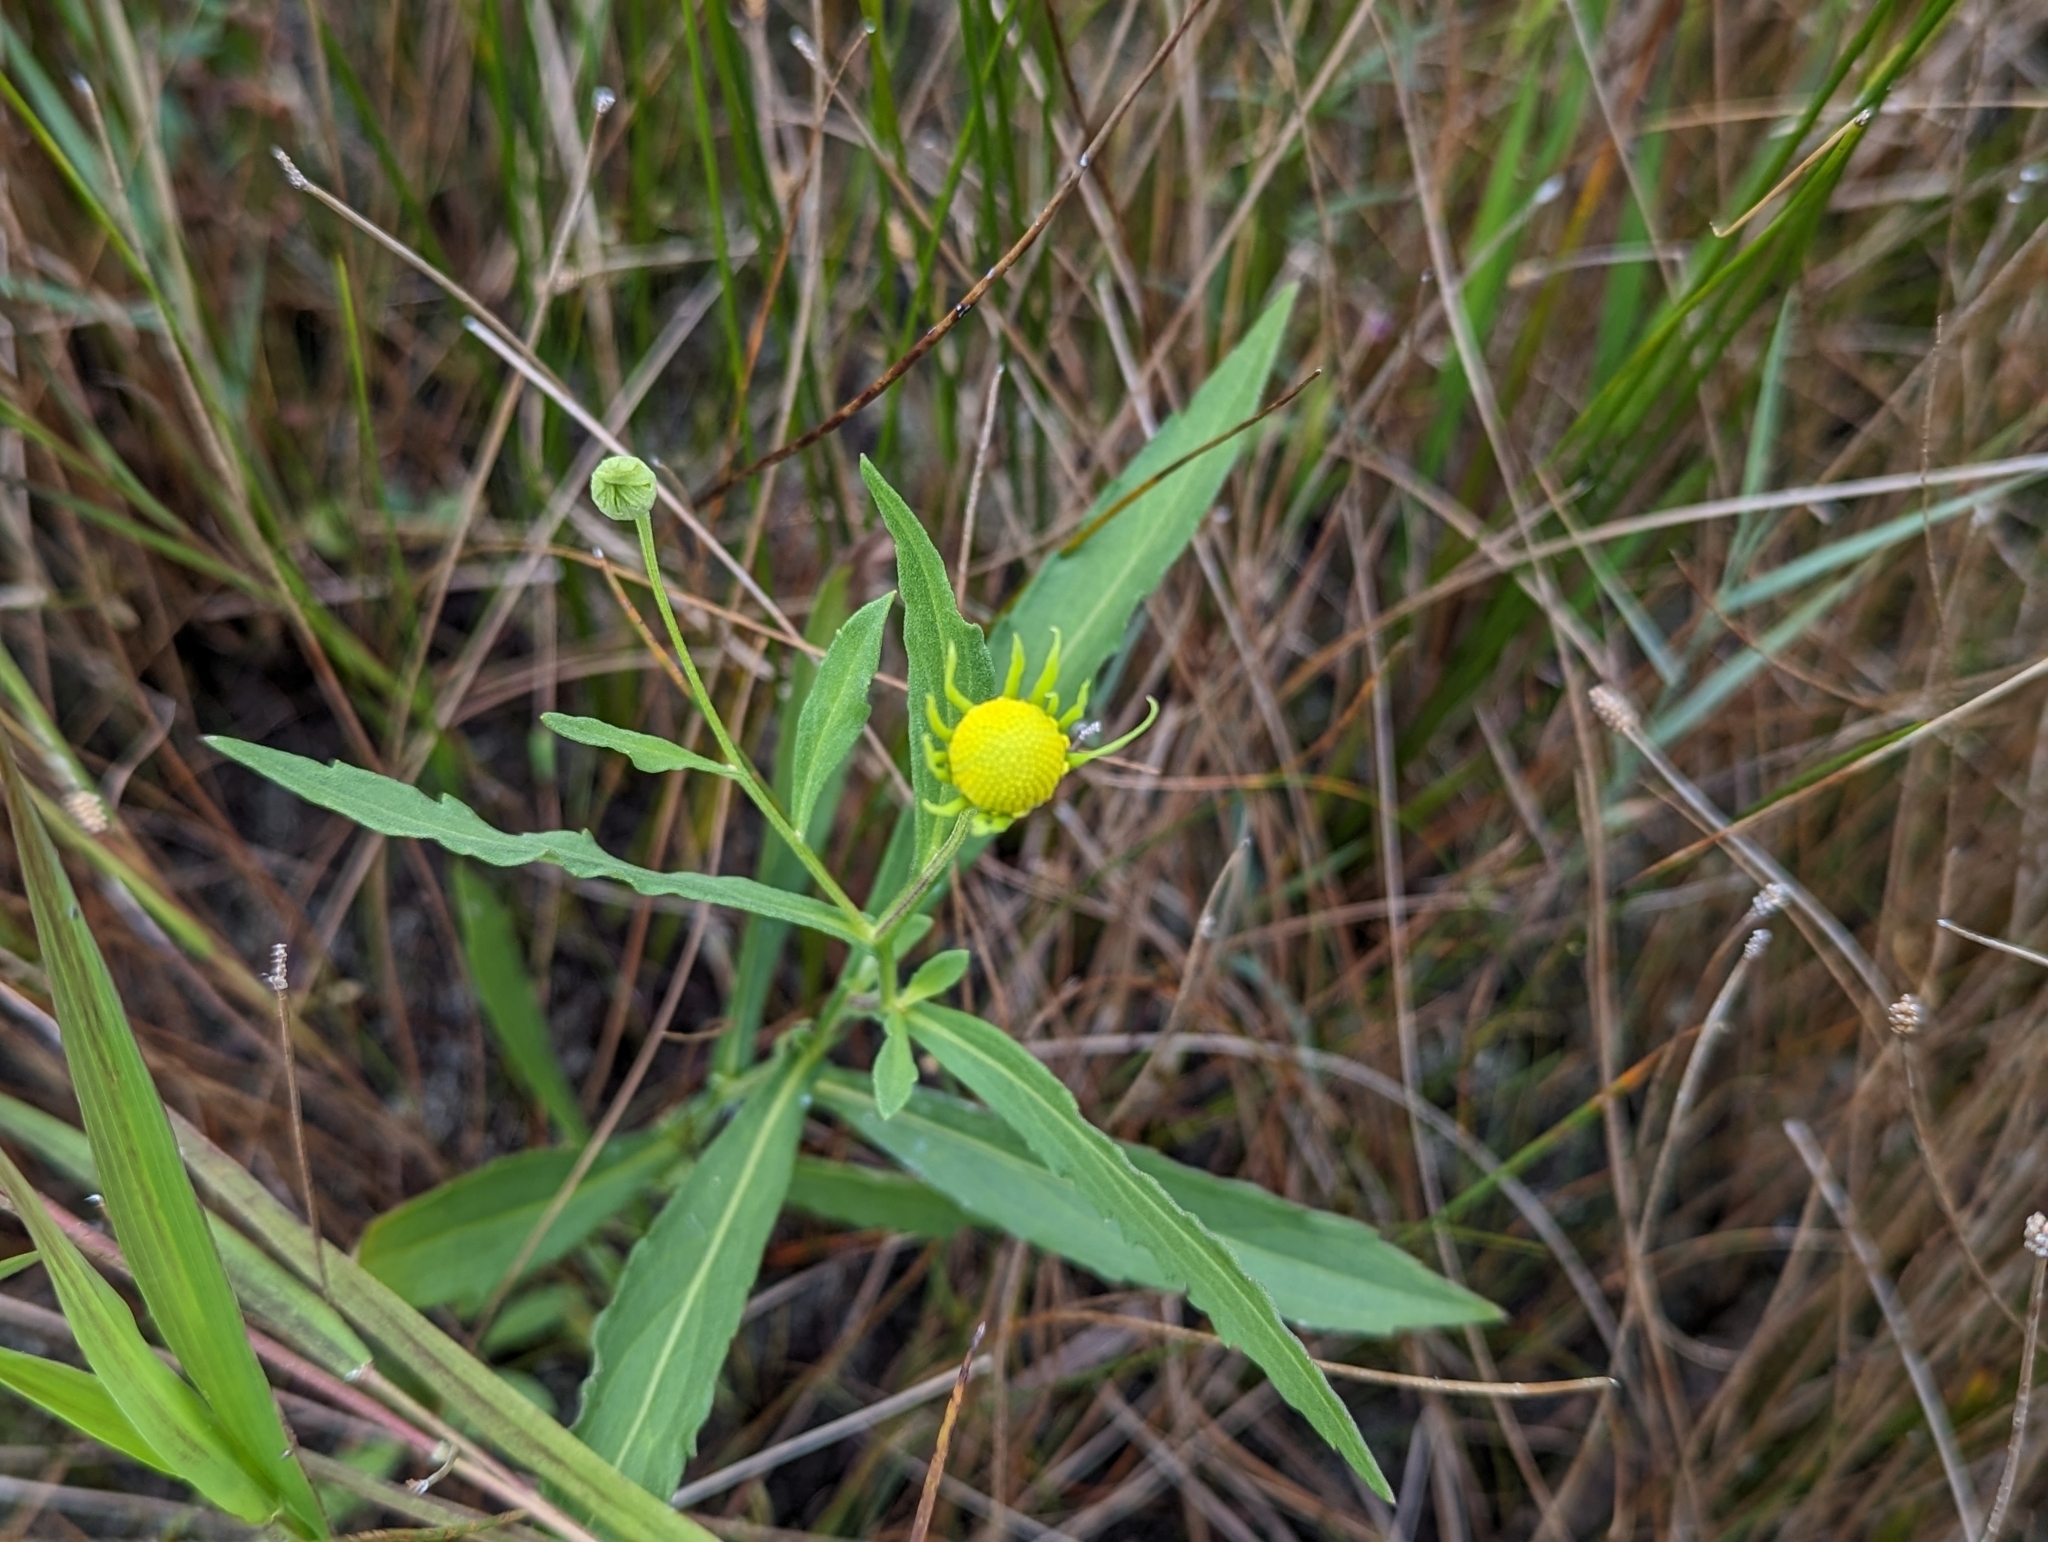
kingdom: Plantae
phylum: Tracheophyta
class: Magnoliopsida
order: Asterales
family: Asteraceae
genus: Helenium
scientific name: Helenium autumnale
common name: Sneezeweed
